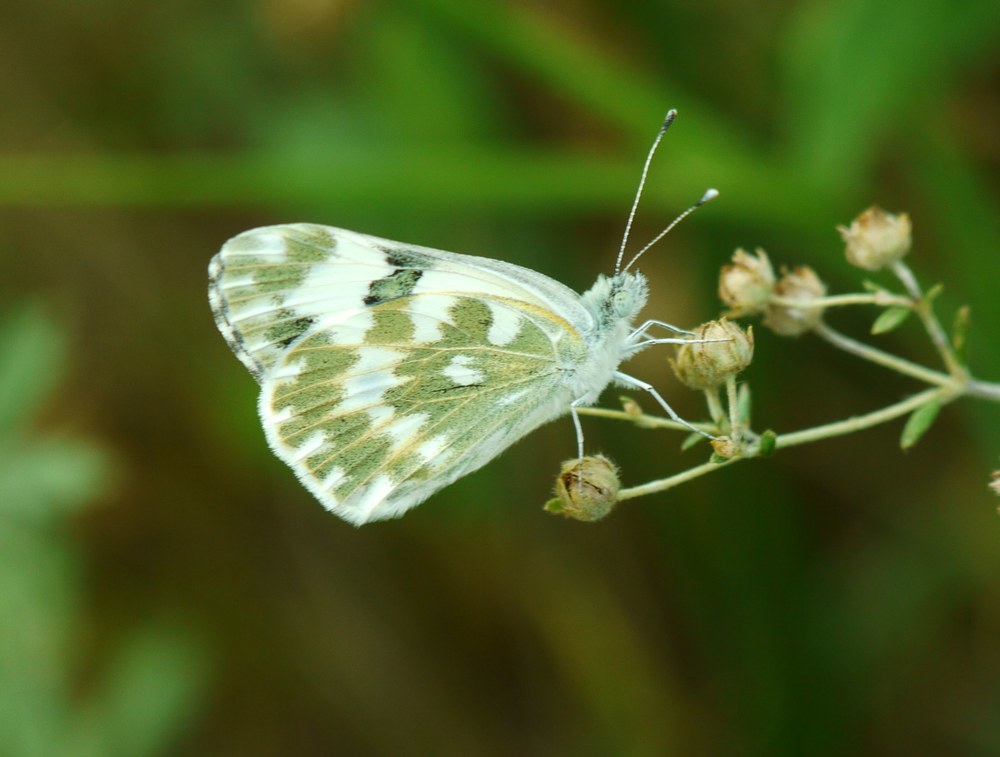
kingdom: Animalia
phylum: Arthropoda
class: Insecta
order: Lepidoptera
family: Pieridae
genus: Pontia
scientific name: Pontia edusa
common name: Eastern bath white
